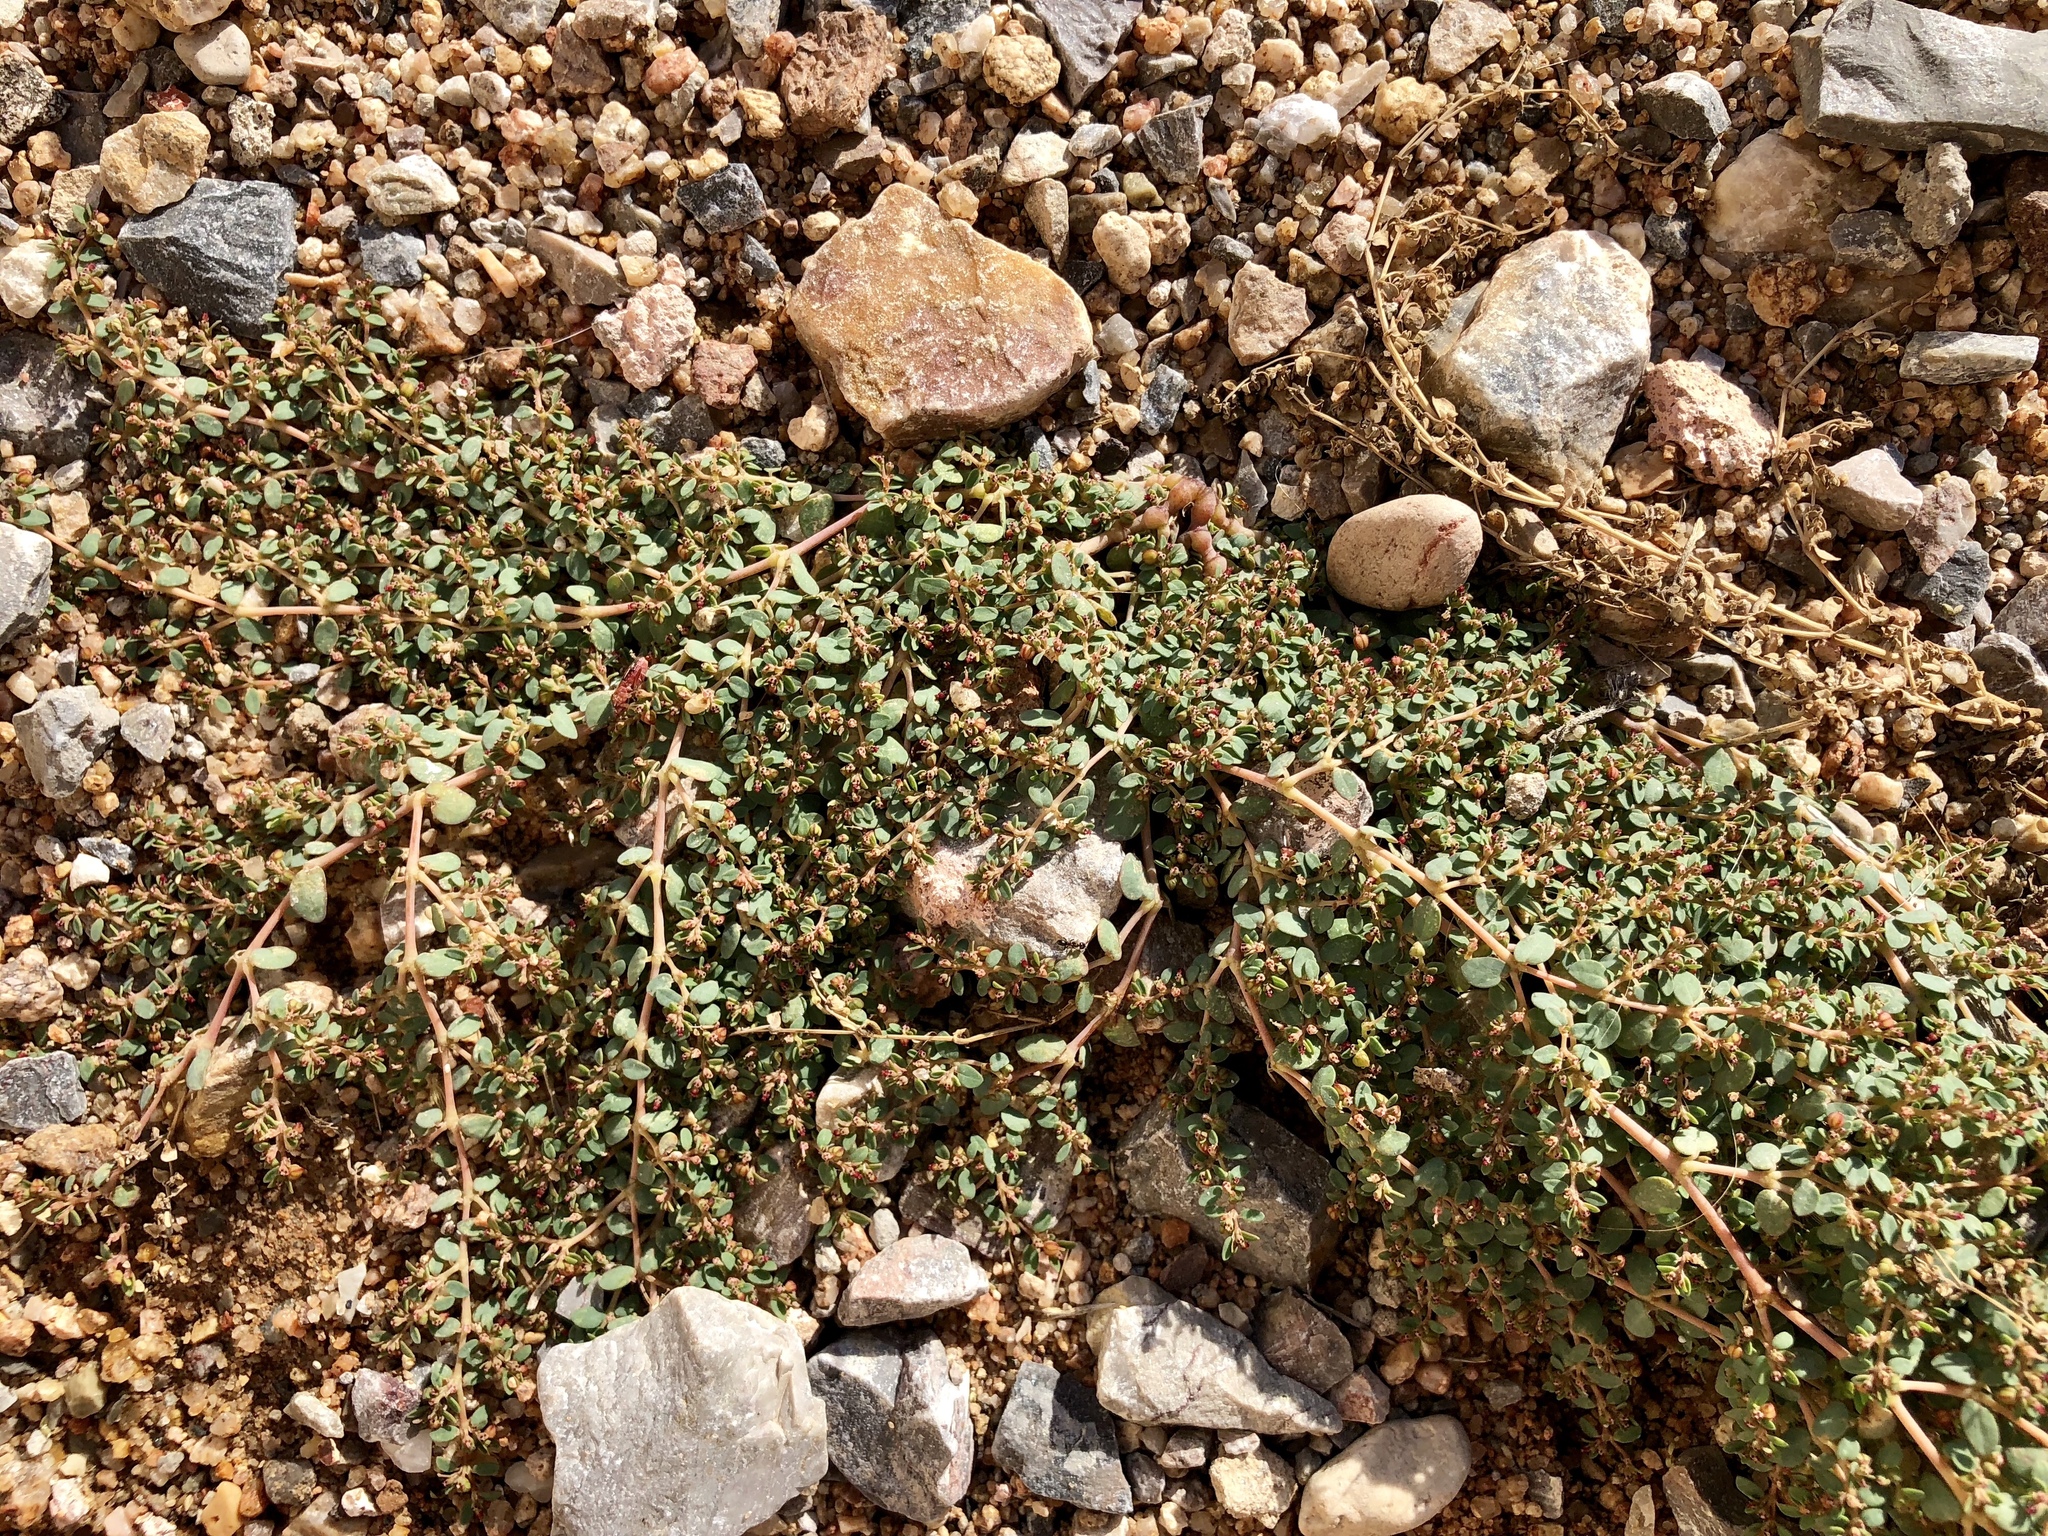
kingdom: Plantae
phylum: Tracheophyta
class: Magnoliopsida
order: Malpighiales
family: Euphorbiaceae
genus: Euphorbia
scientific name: Euphorbia micromera
